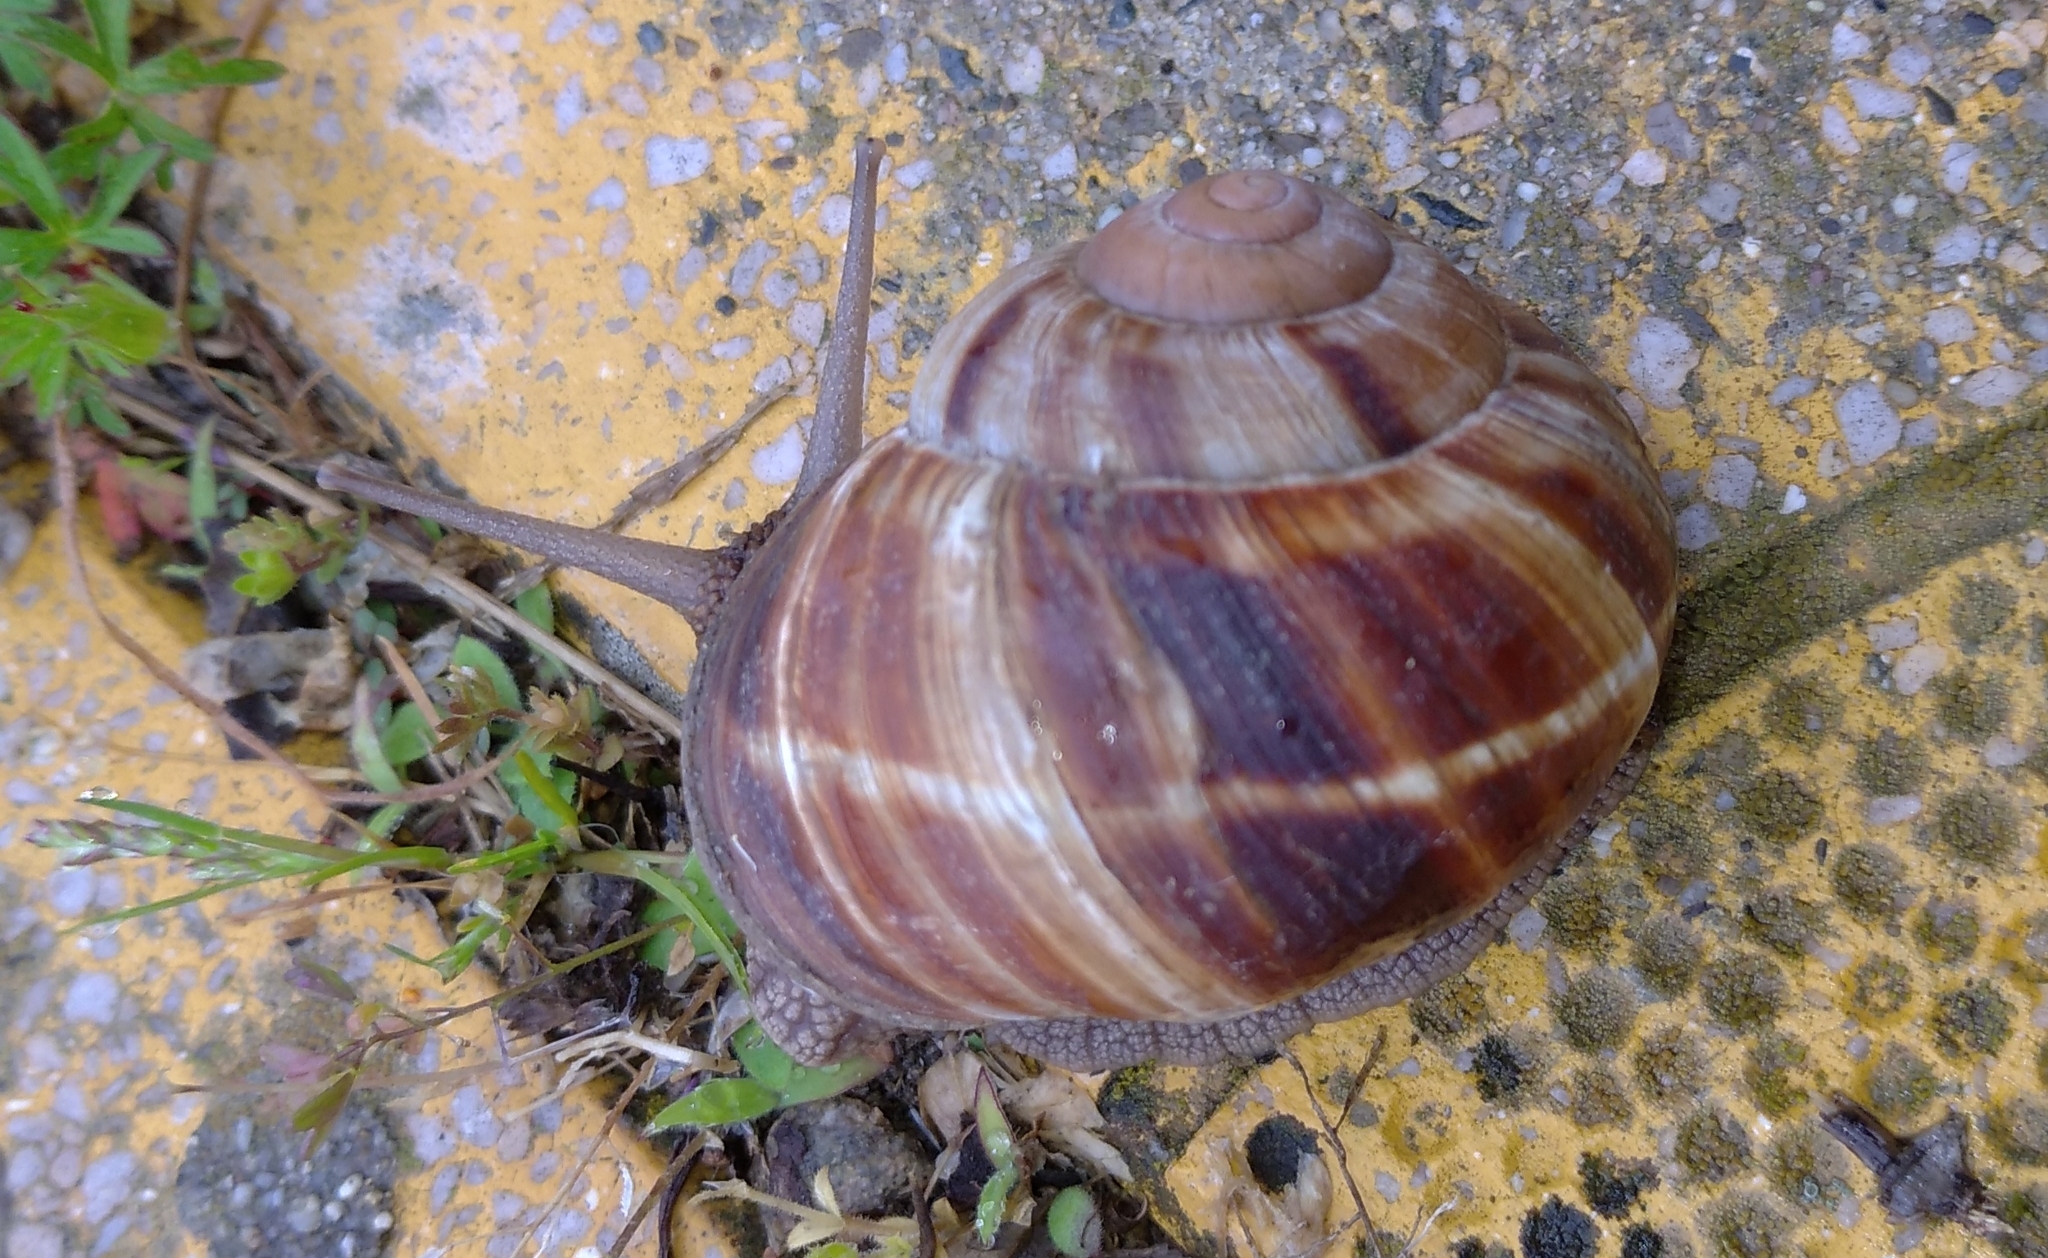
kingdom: Animalia
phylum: Mollusca
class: Gastropoda
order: Stylommatophora
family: Helicidae
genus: Helix
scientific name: Helix lucorum
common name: Turkish snail
